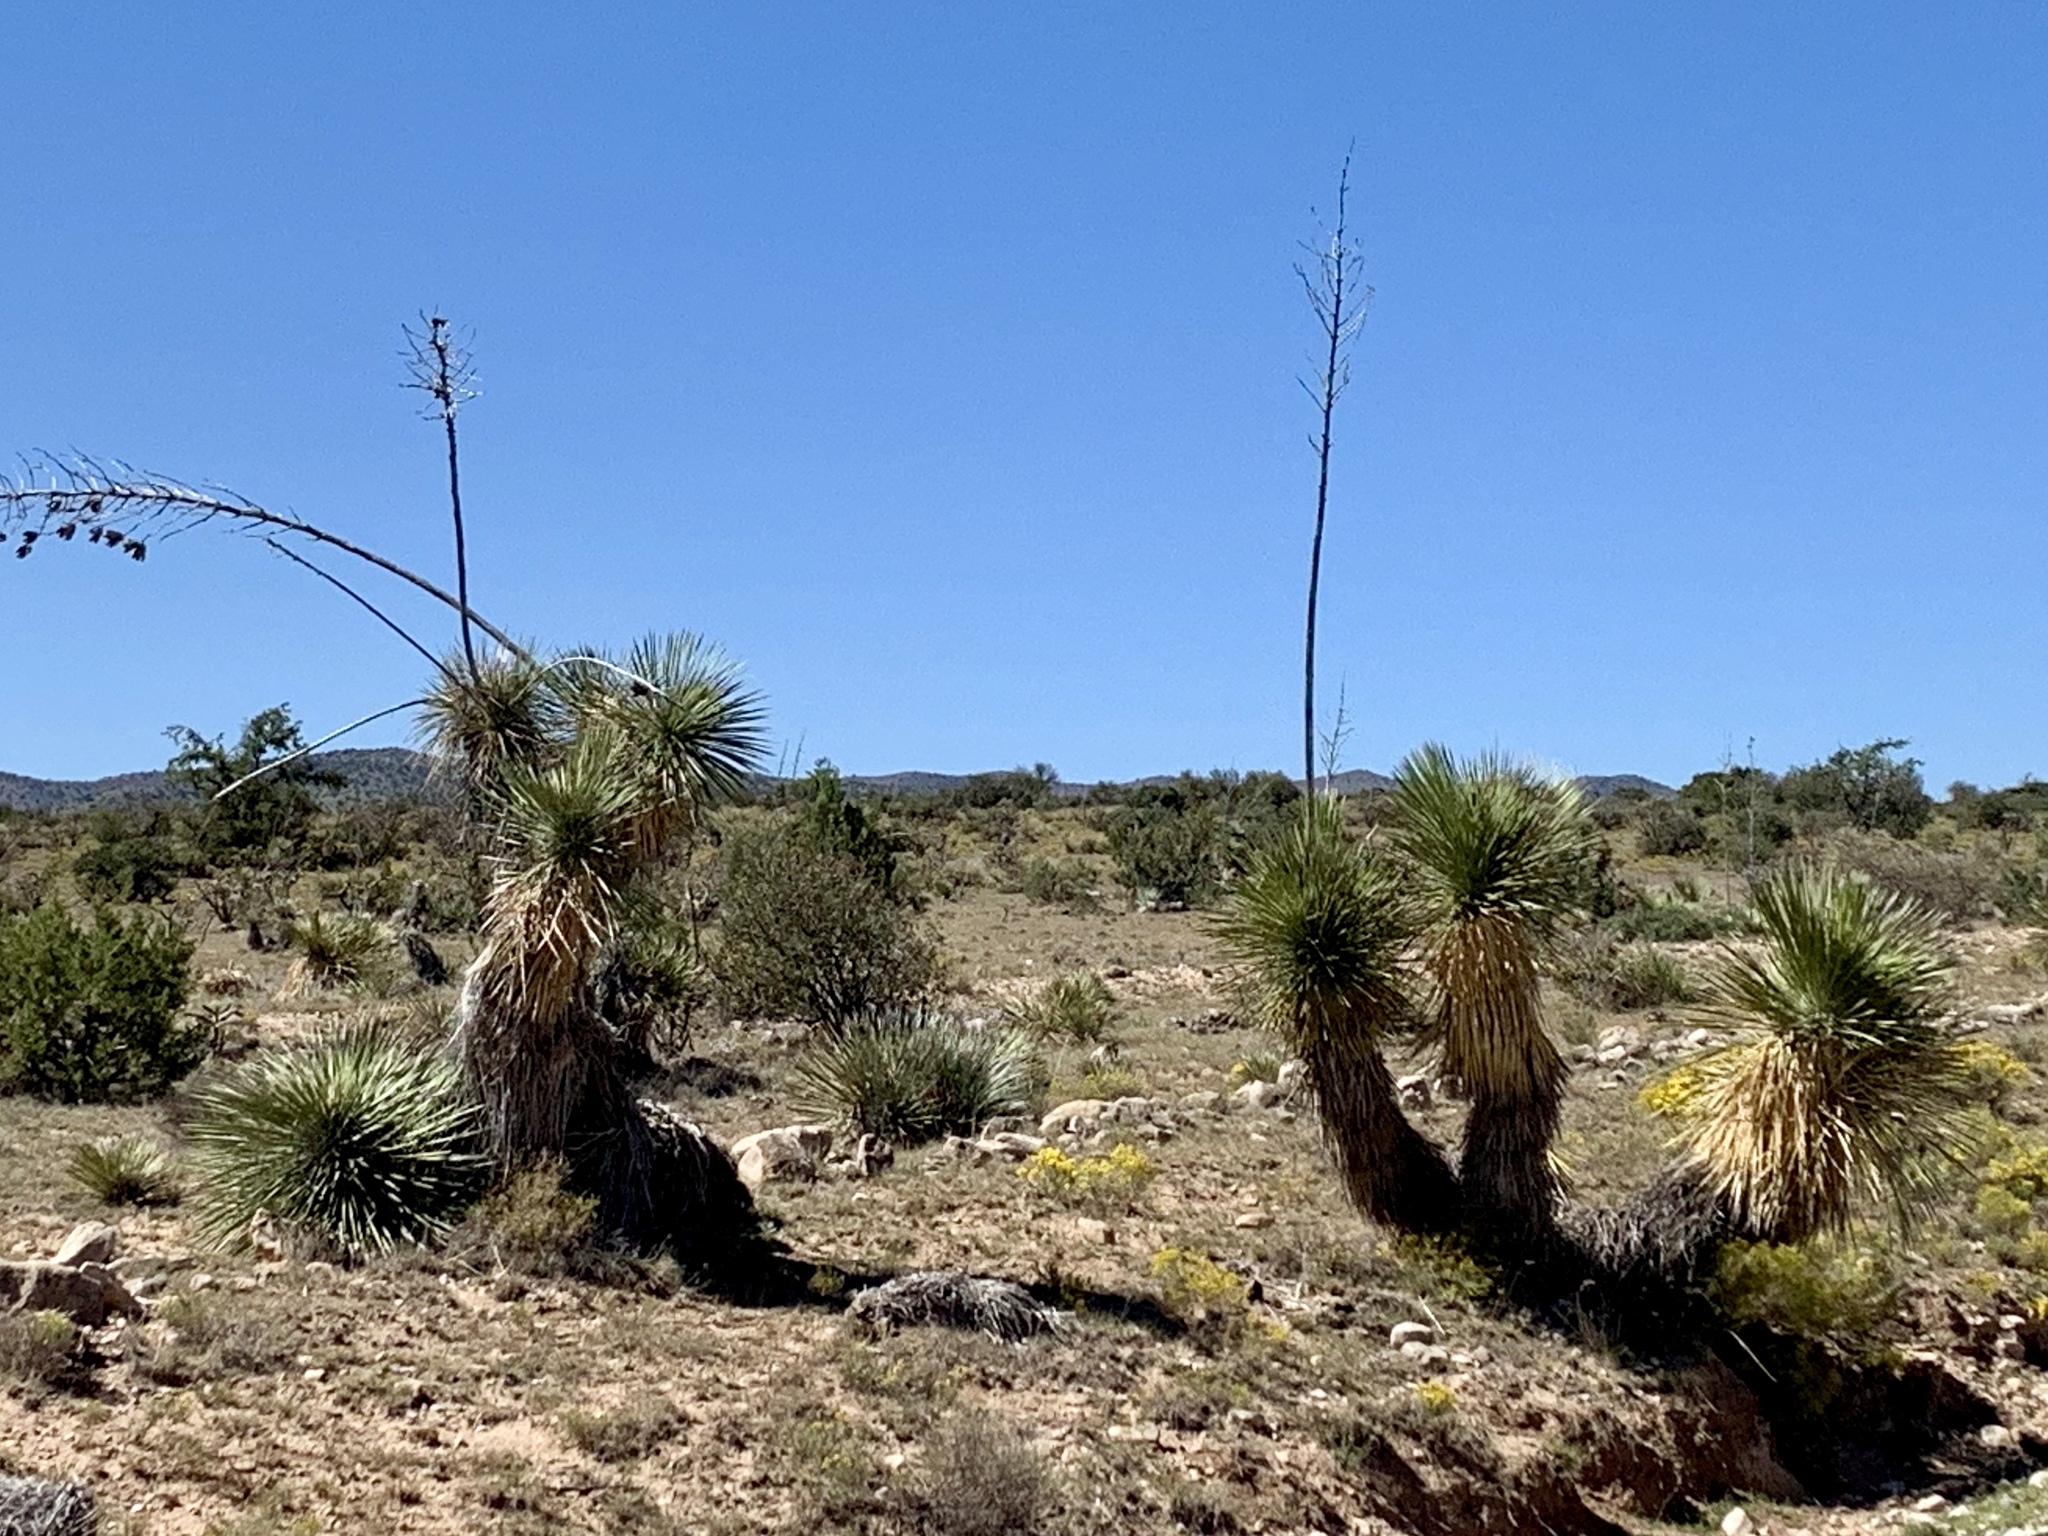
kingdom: Plantae
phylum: Tracheophyta
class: Liliopsida
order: Asparagales
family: Asparagaceae
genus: Yucca
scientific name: Yucca elata
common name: Palmella
